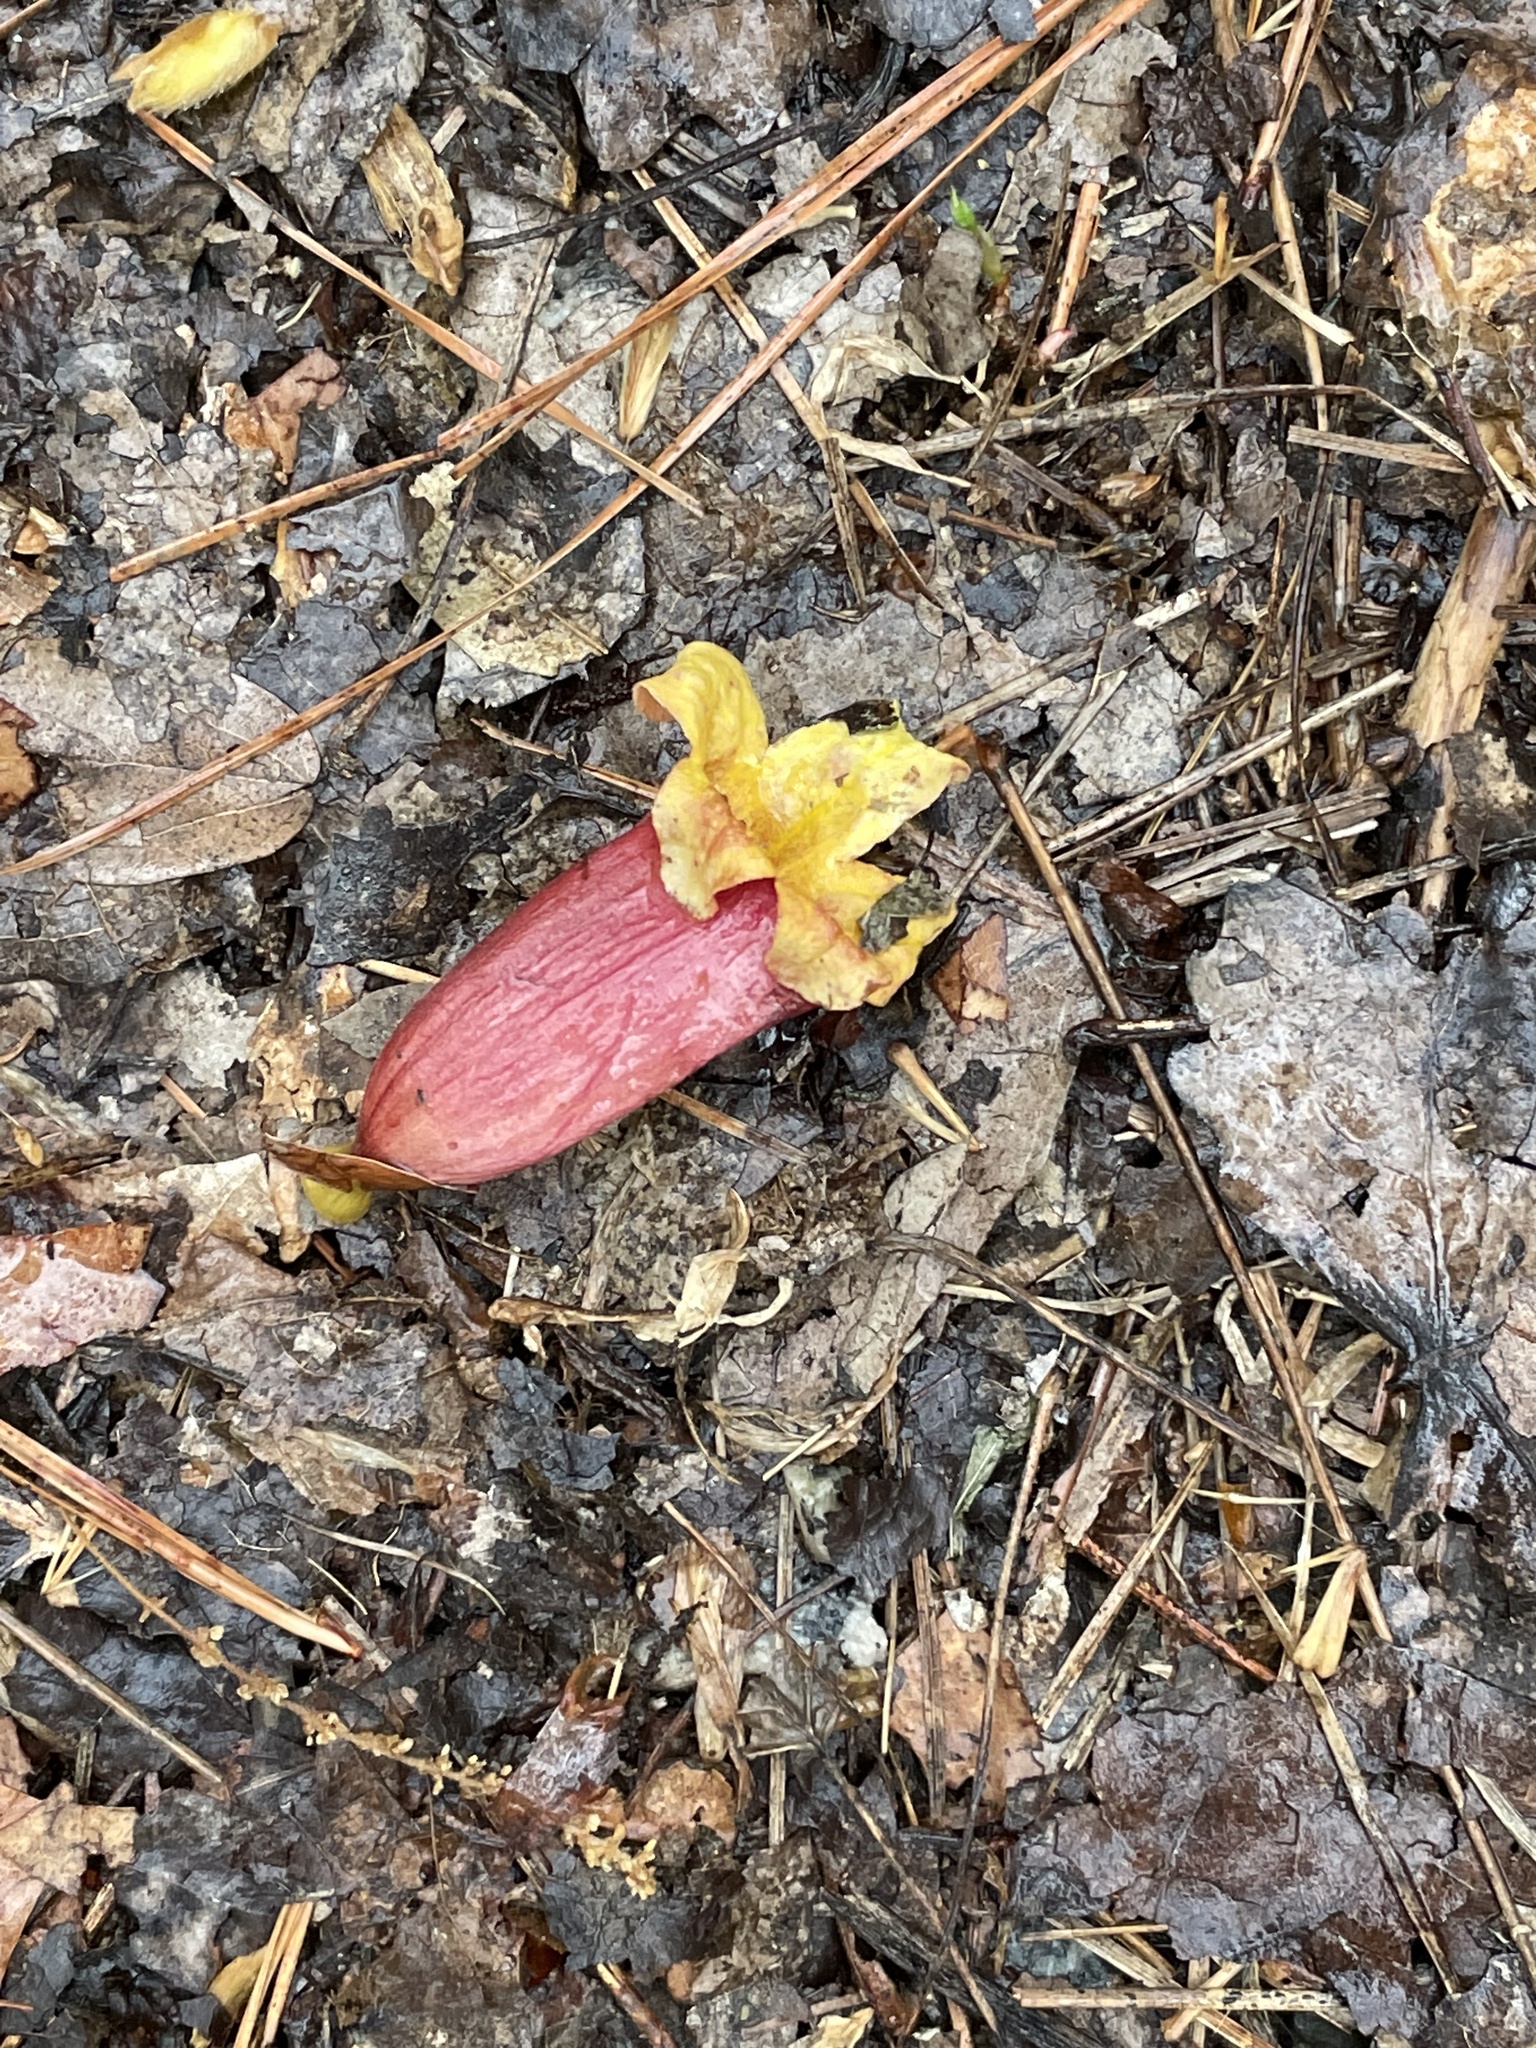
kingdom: Plantae
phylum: Tracheophyta
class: Magnoliopsida
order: Lamiales
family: Bignoniaceae
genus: Bignonia
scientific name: Bignonia capreolata
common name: Crossvine
